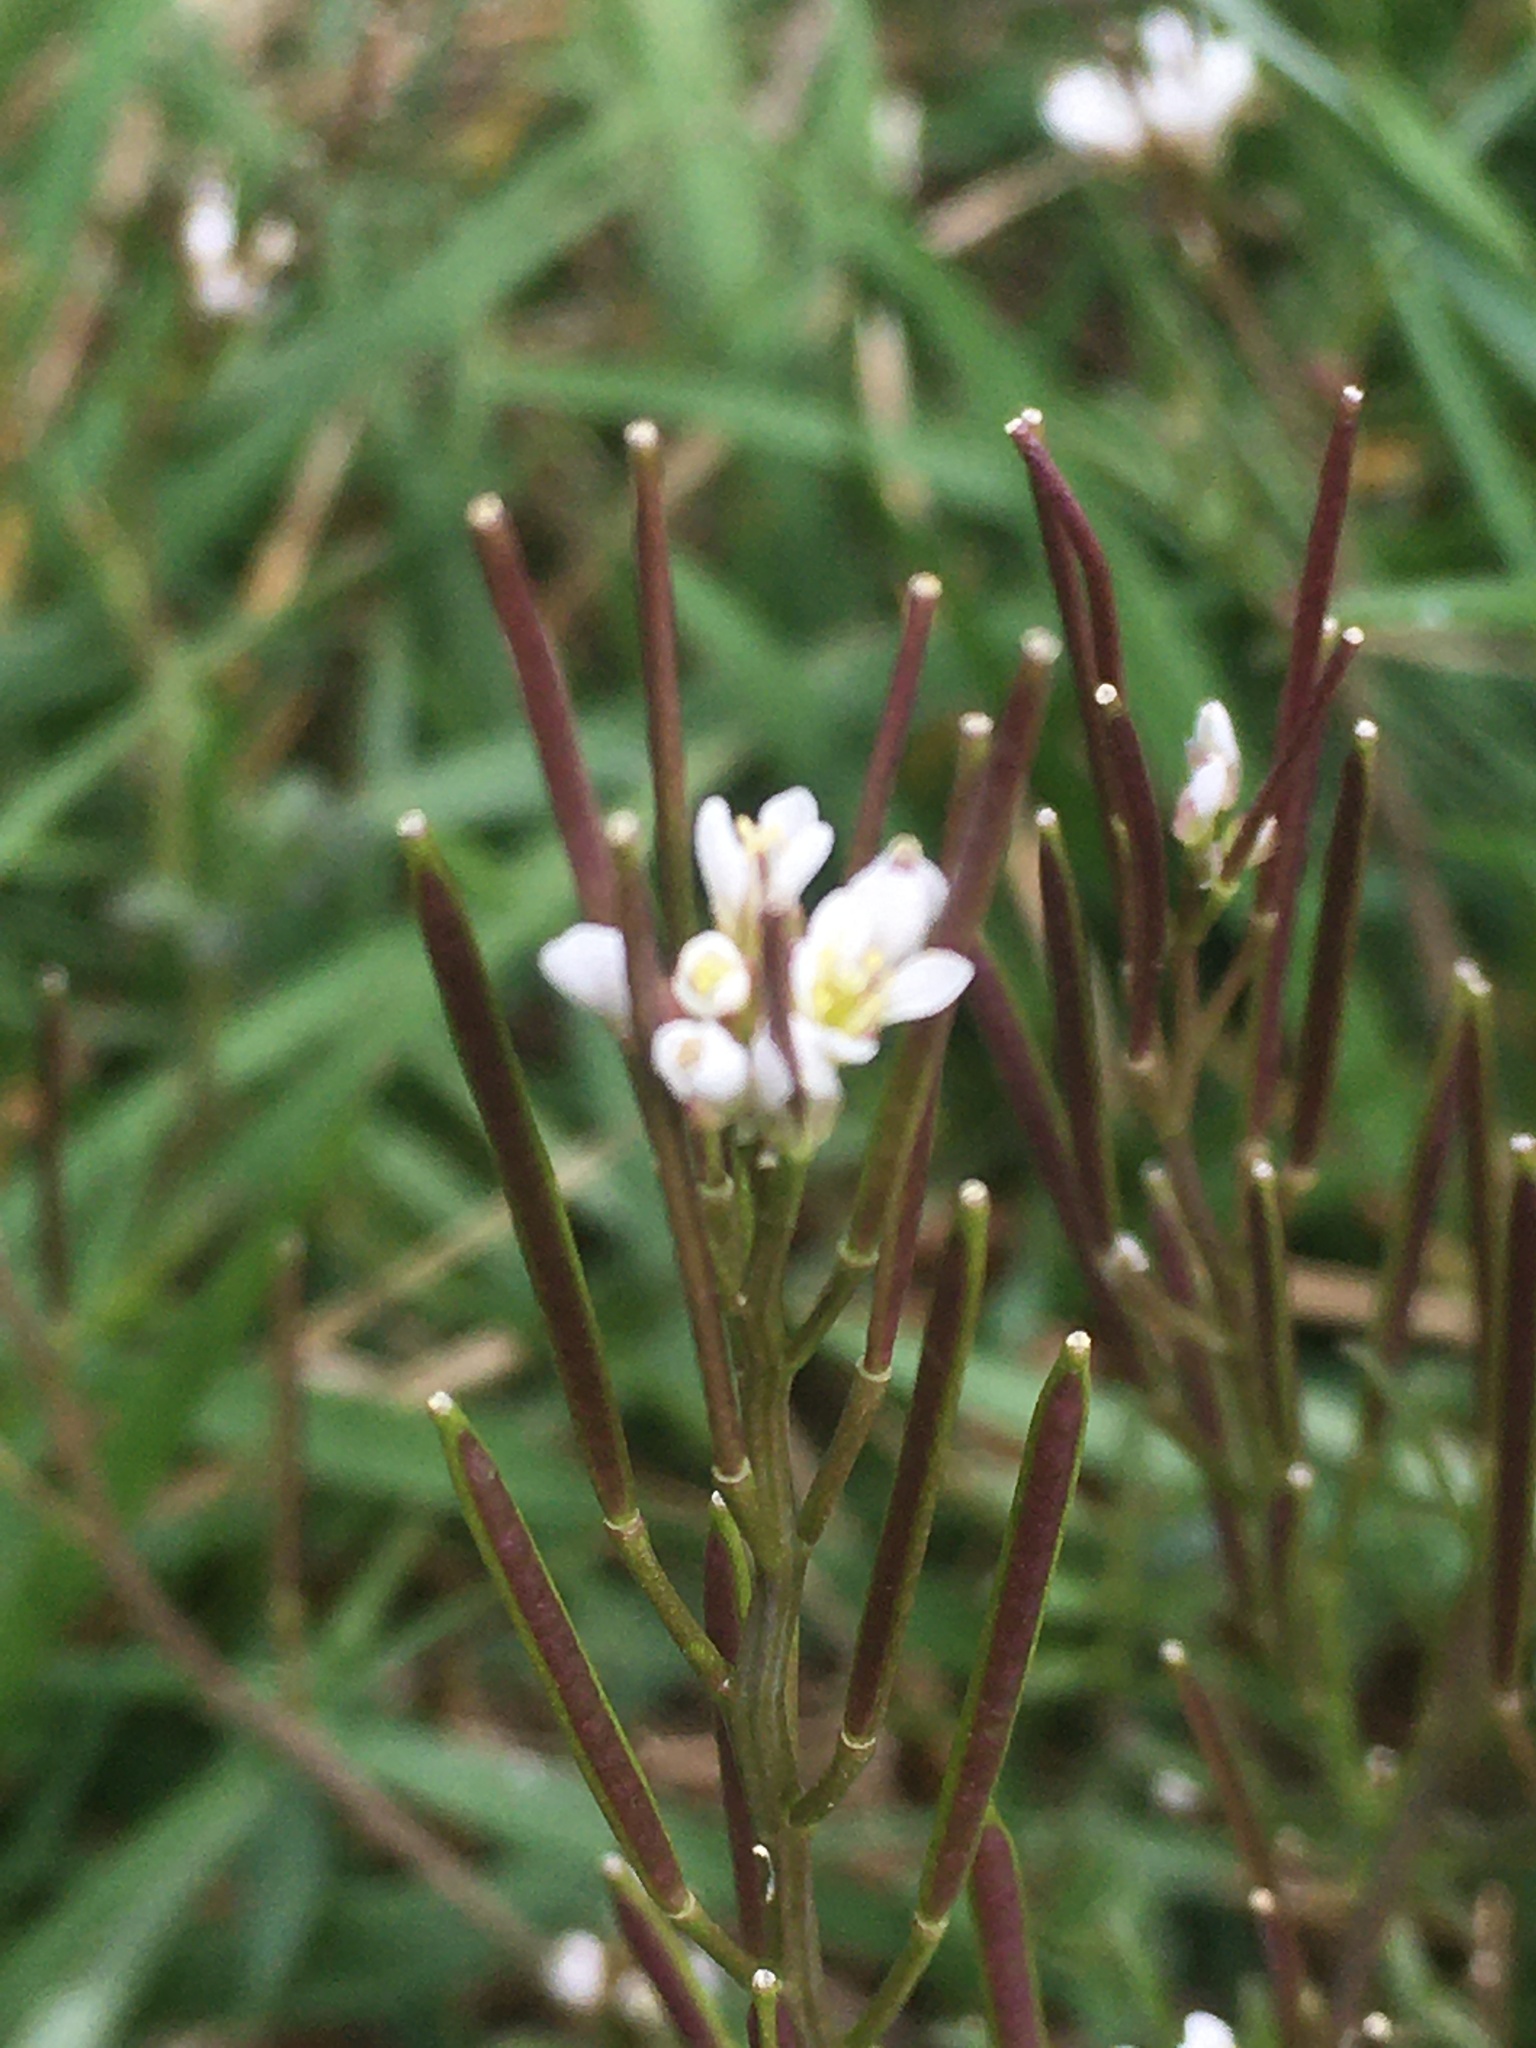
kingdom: Plantae
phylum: Tracheophyta
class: Magnoliopsida
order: Brassicales
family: Brassicaceae
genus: Cardamine
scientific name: Cardamine hirsuta
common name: Hairy bittercress
